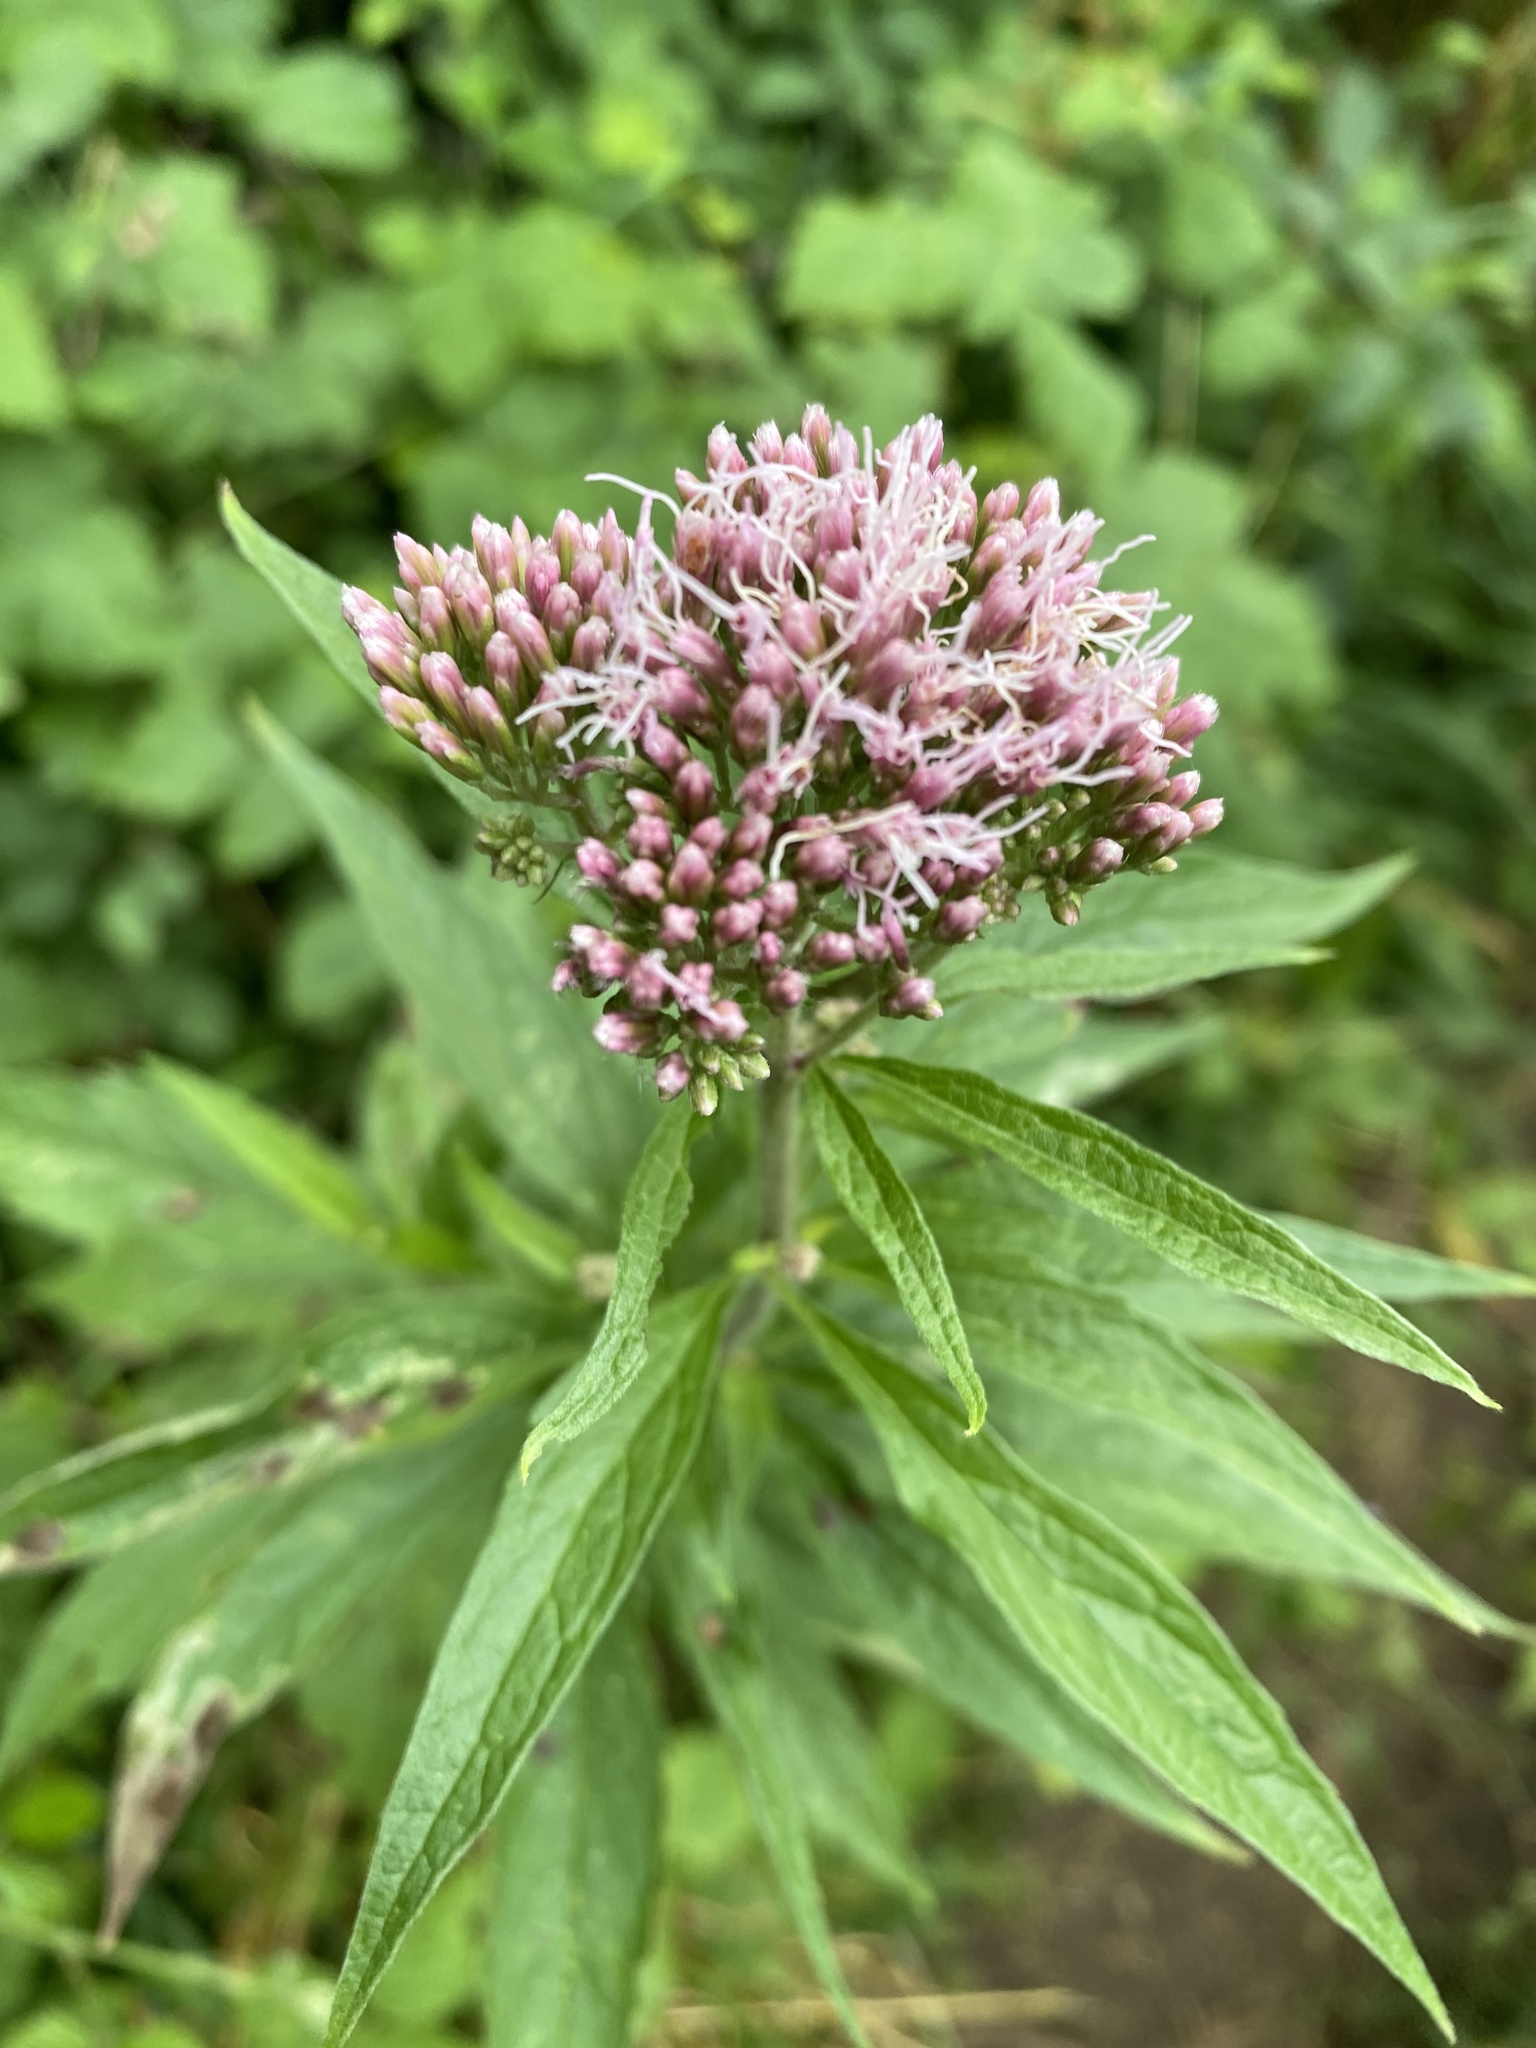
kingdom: Plantae
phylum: Tracheophyta
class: Magnoliopsida
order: Asterales
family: Asteraceae
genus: Eupatorium
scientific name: Eupatorium cannabinum
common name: Hemp-agrimony
